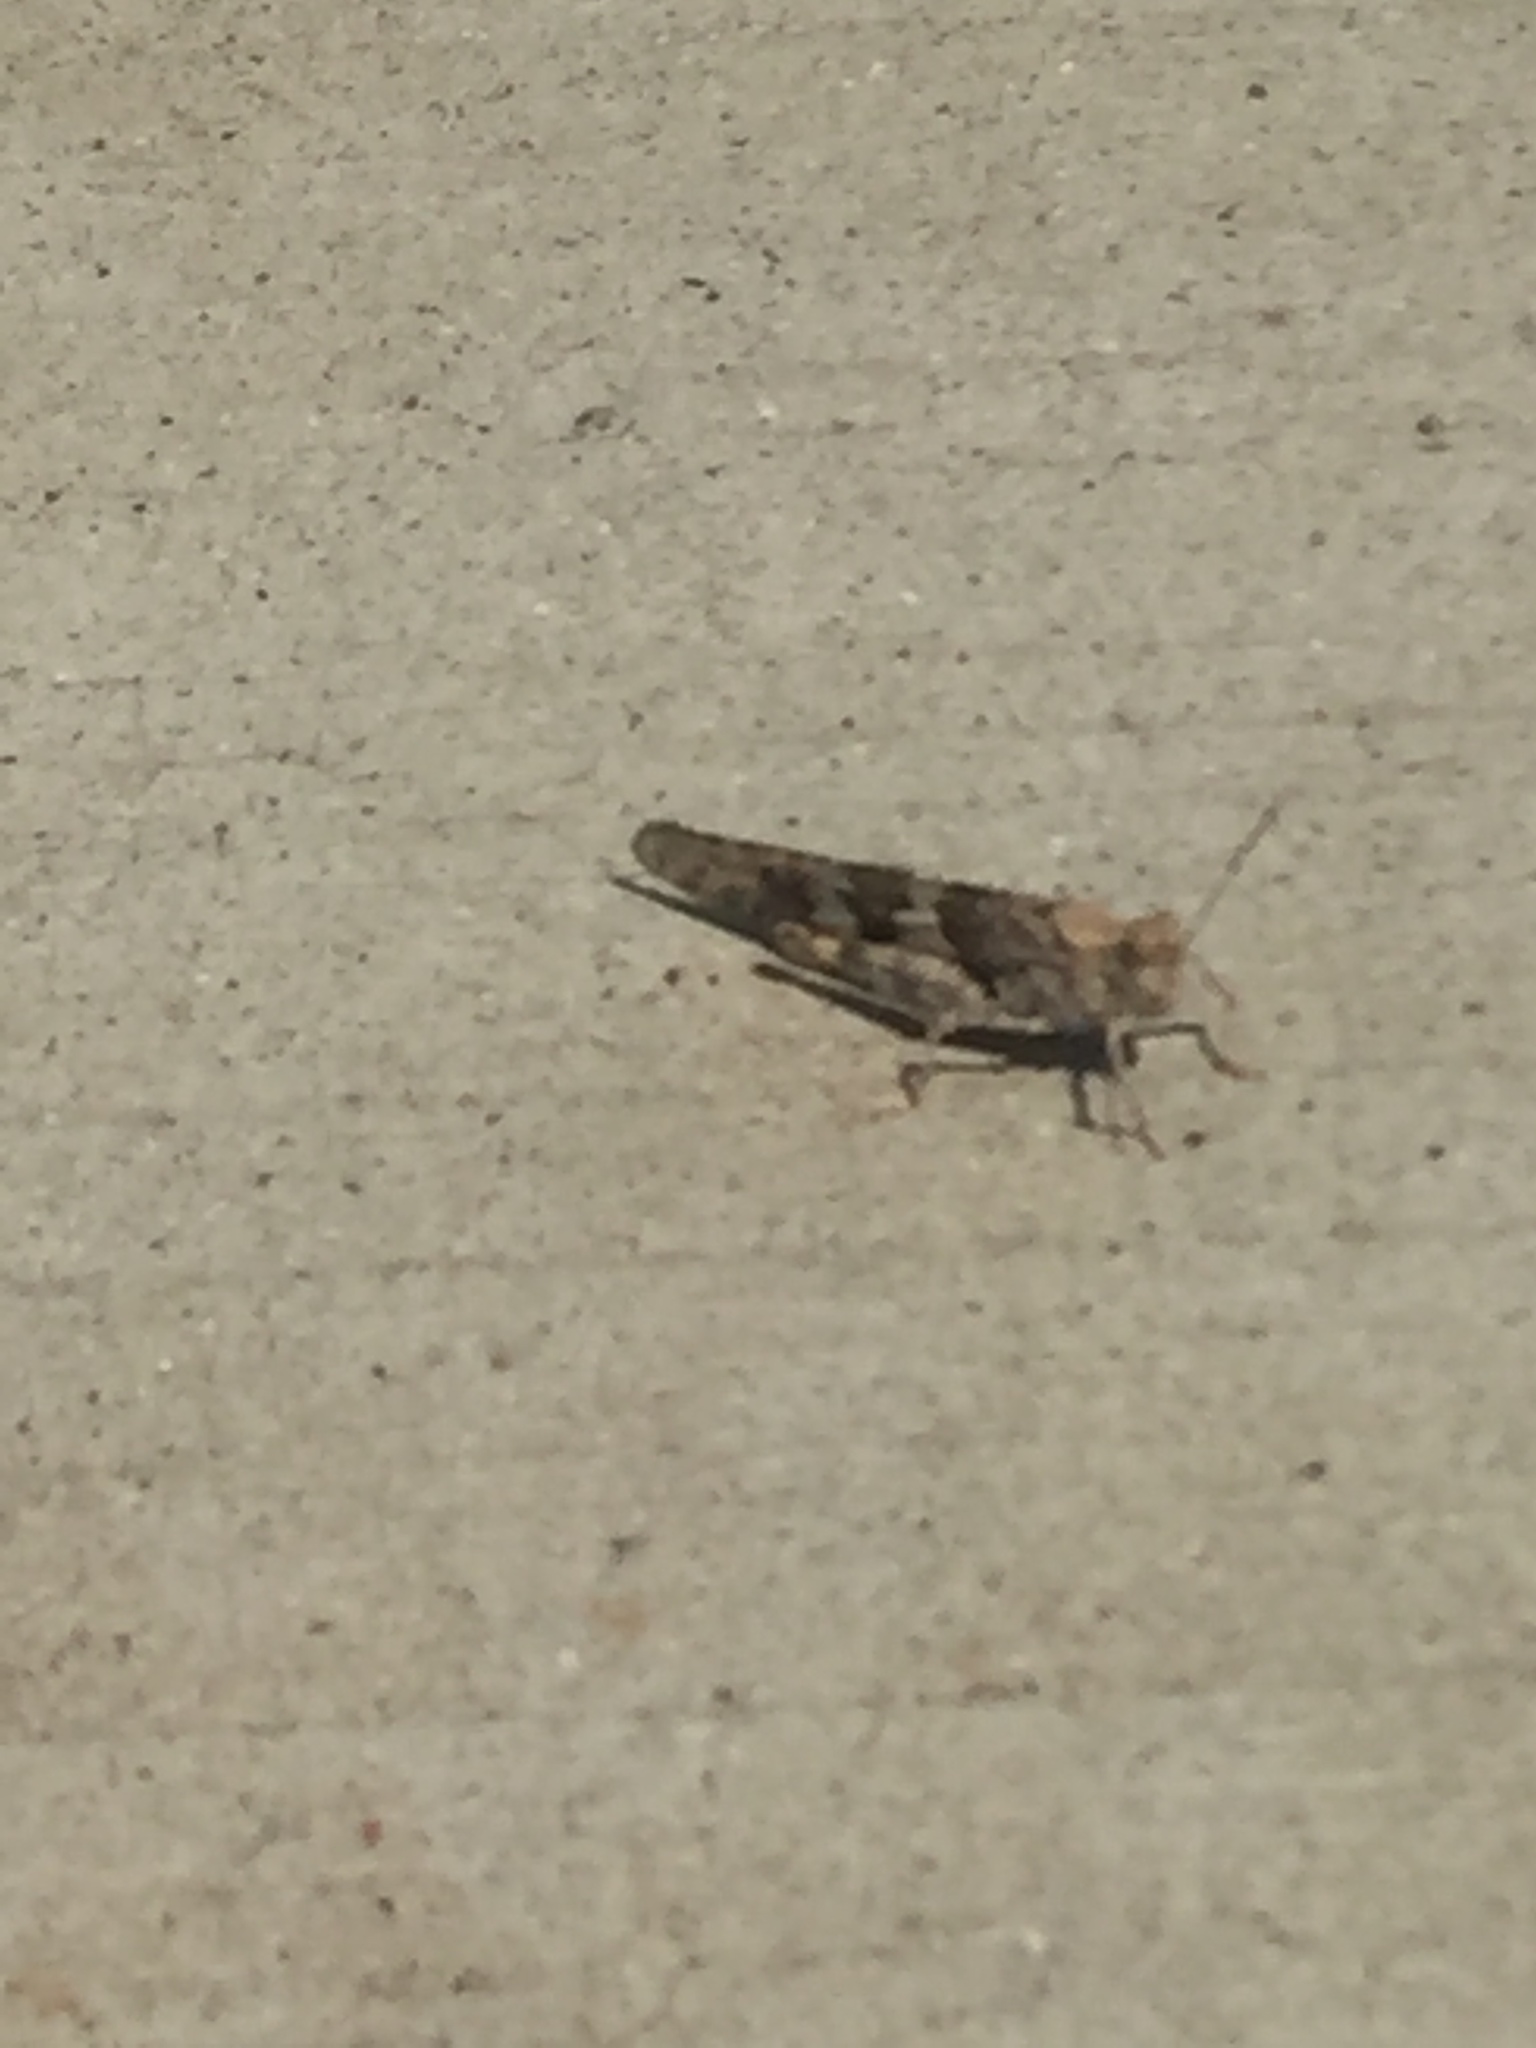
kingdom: Animalia
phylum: Arthropoda
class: Insecta
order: Orthoptera
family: Acrididae
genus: Trimerotropis
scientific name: Trimerotropis pallidipennis
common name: Pallid-winged grasshopper
